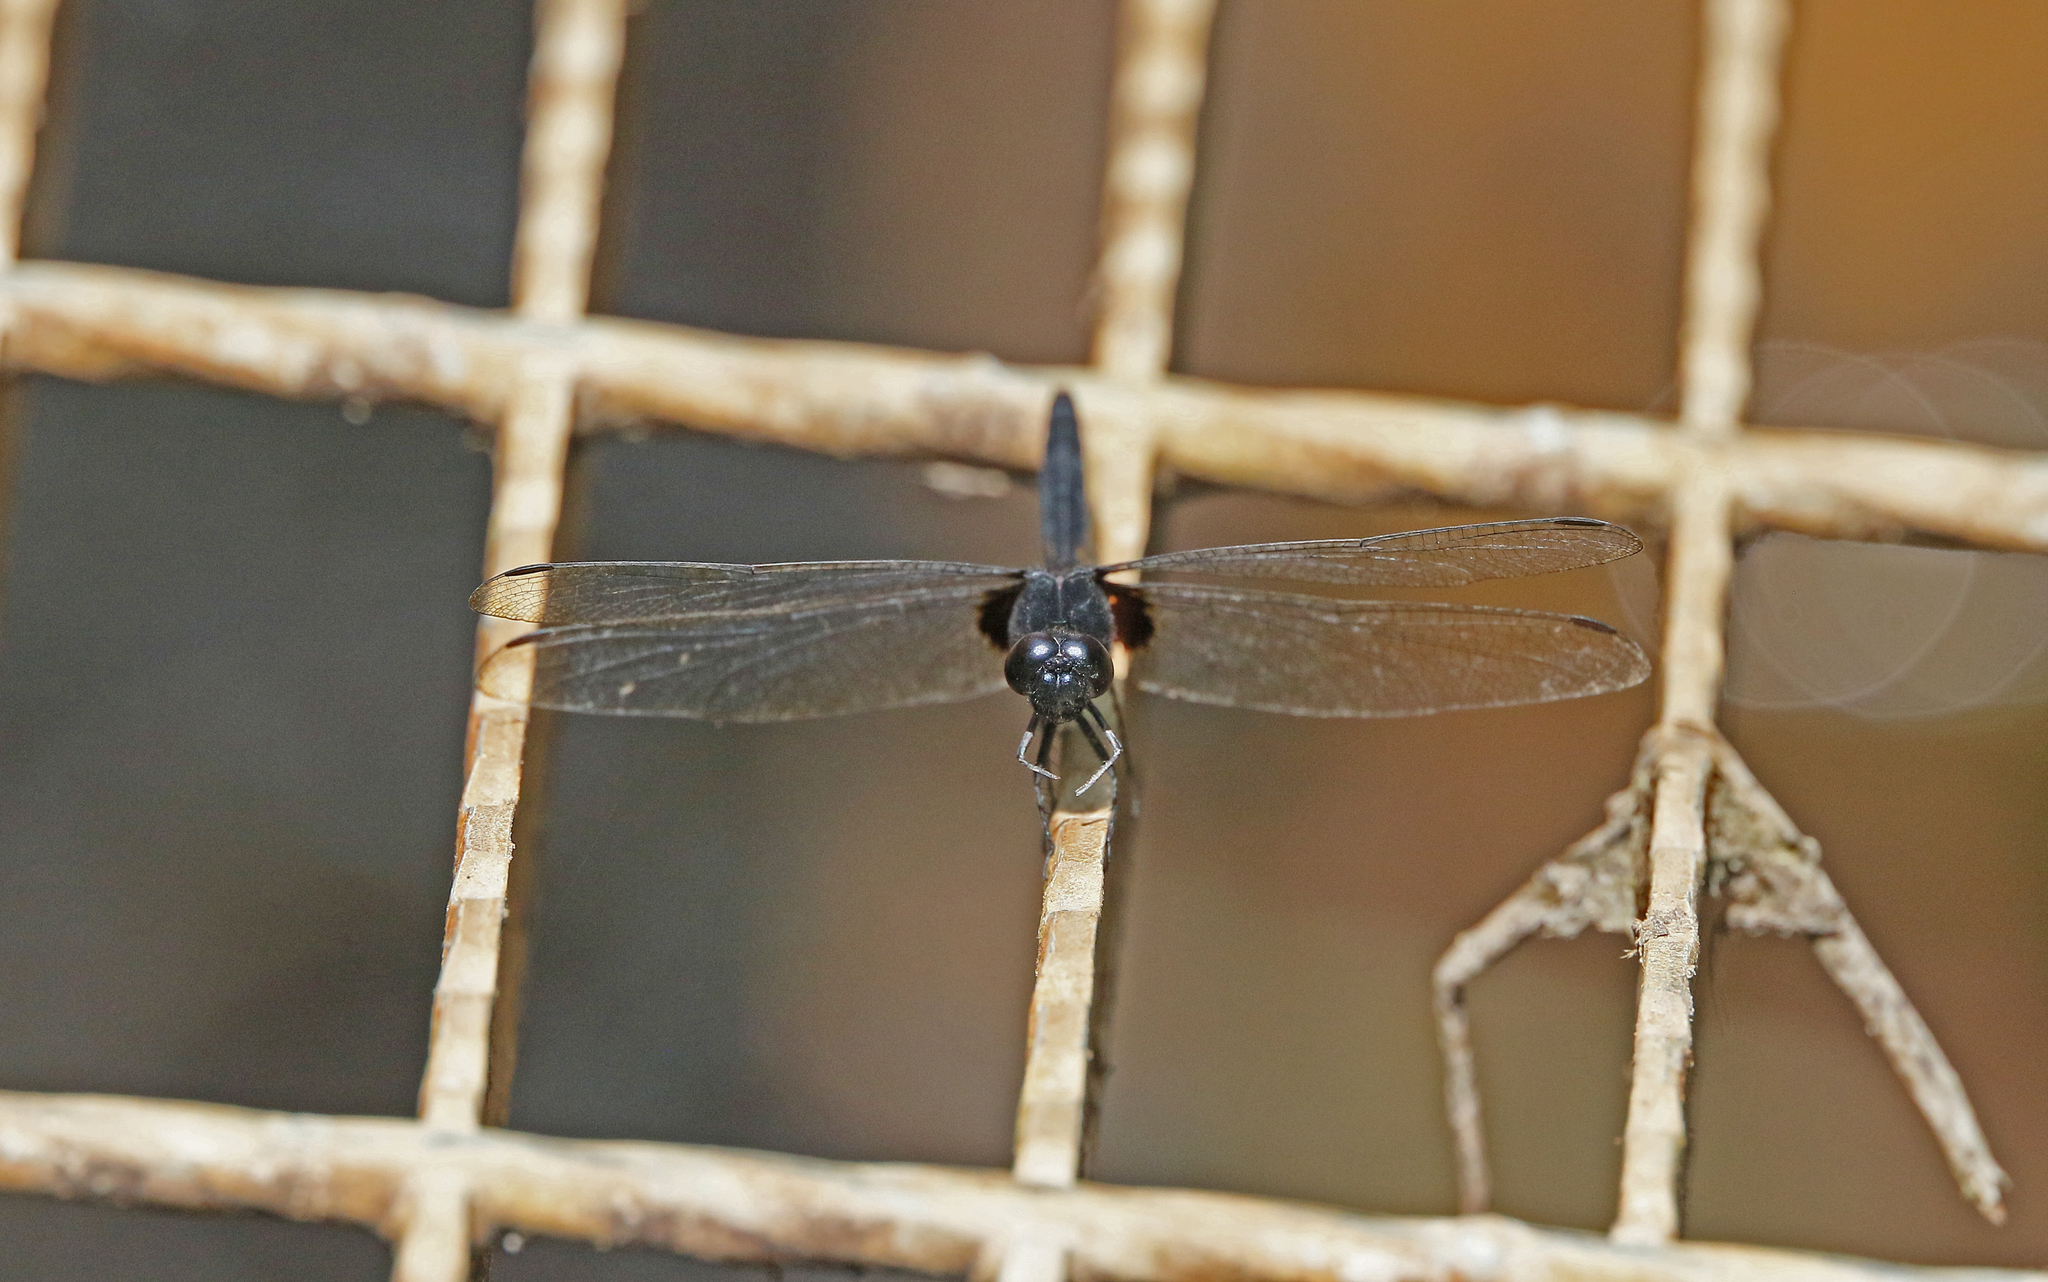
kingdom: Animalia
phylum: Arthropoda
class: Insecta
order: Odonata
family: Libellulidae
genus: Erythemis
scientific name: Erythemis attala
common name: Black pondhawk
